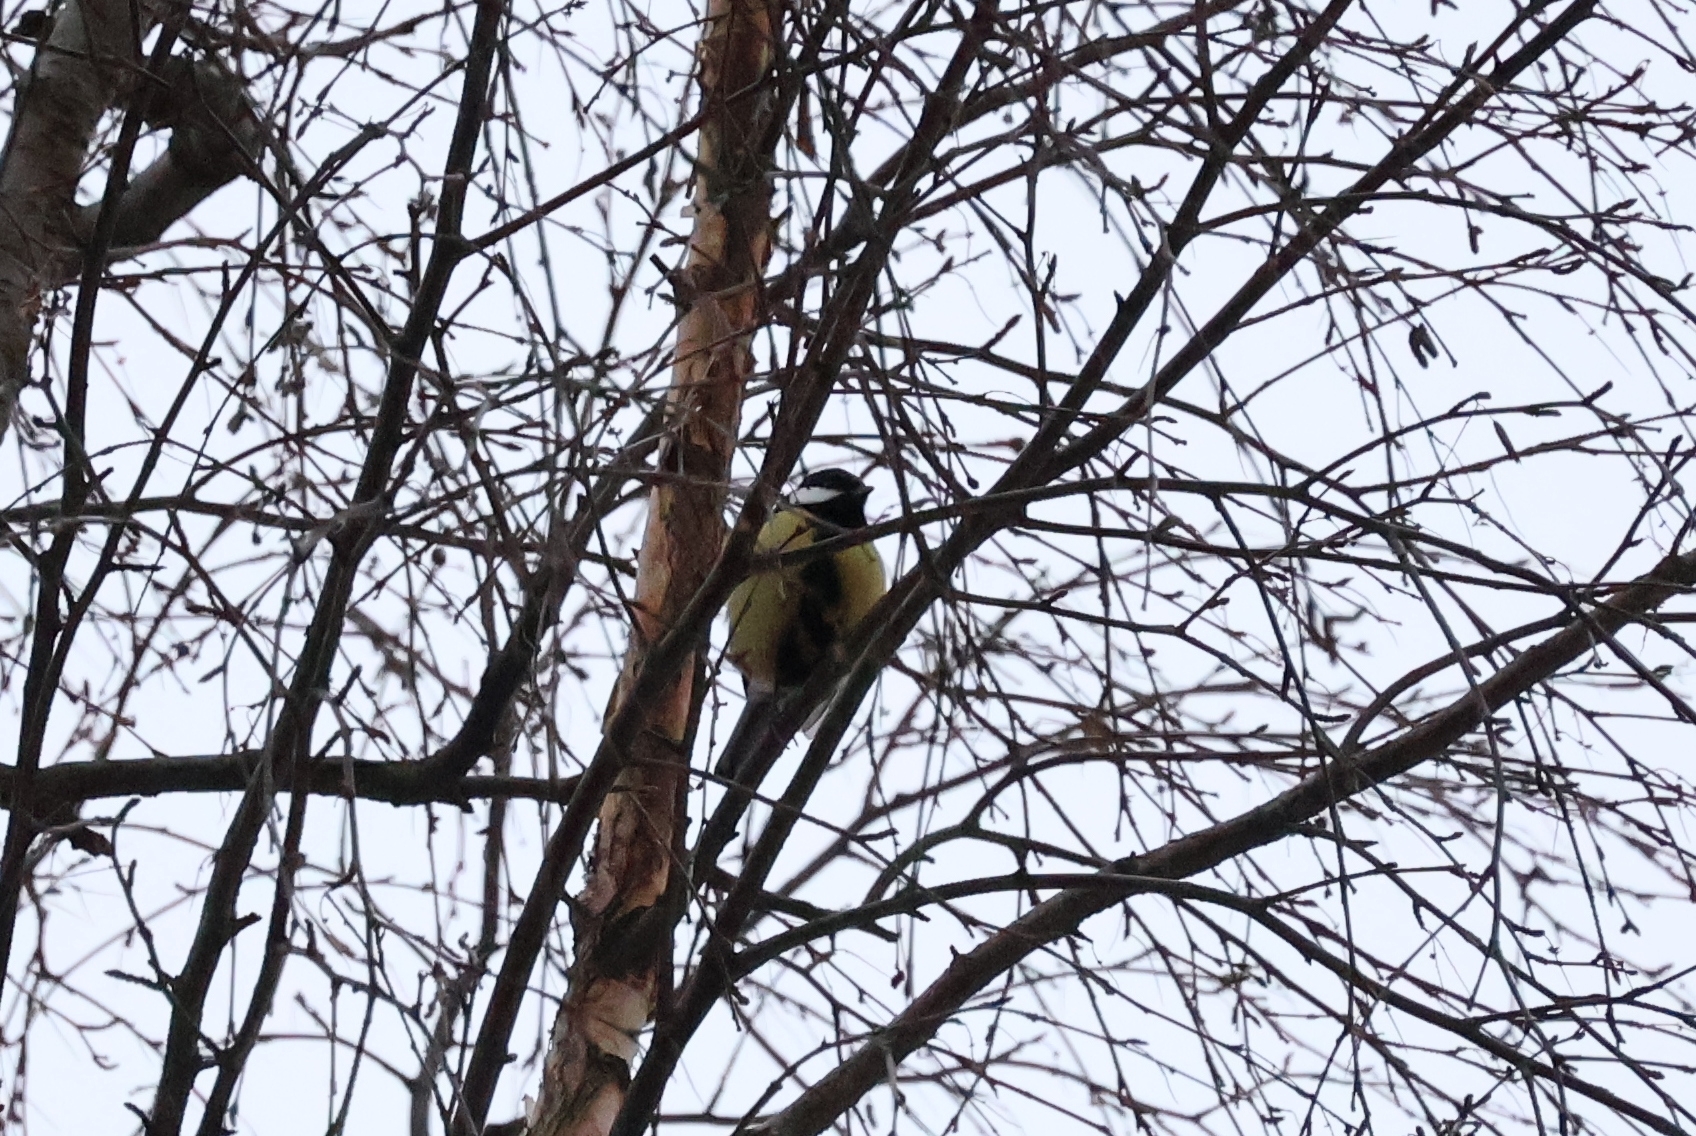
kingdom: Animalia
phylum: Chordata
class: Aves
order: Passeriformes
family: Paridae
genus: Parus
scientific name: Parus major
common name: Great tit
